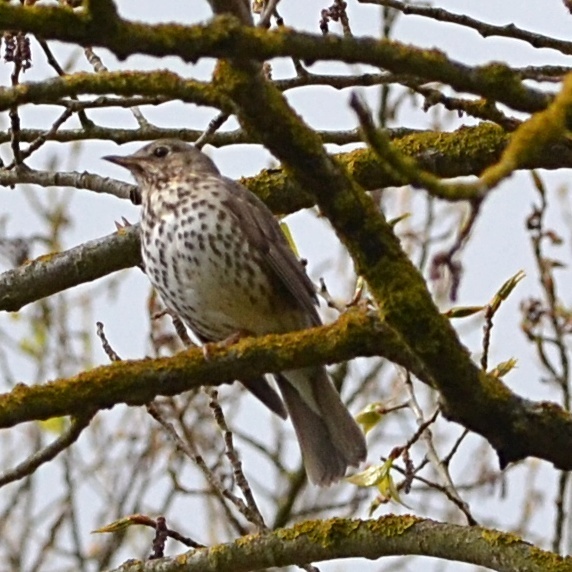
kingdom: Animalia
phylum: Chordata
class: Aves
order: Passeriformes
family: Turdidae
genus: Turdus
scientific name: Turdus philomelos
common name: Song thrush
